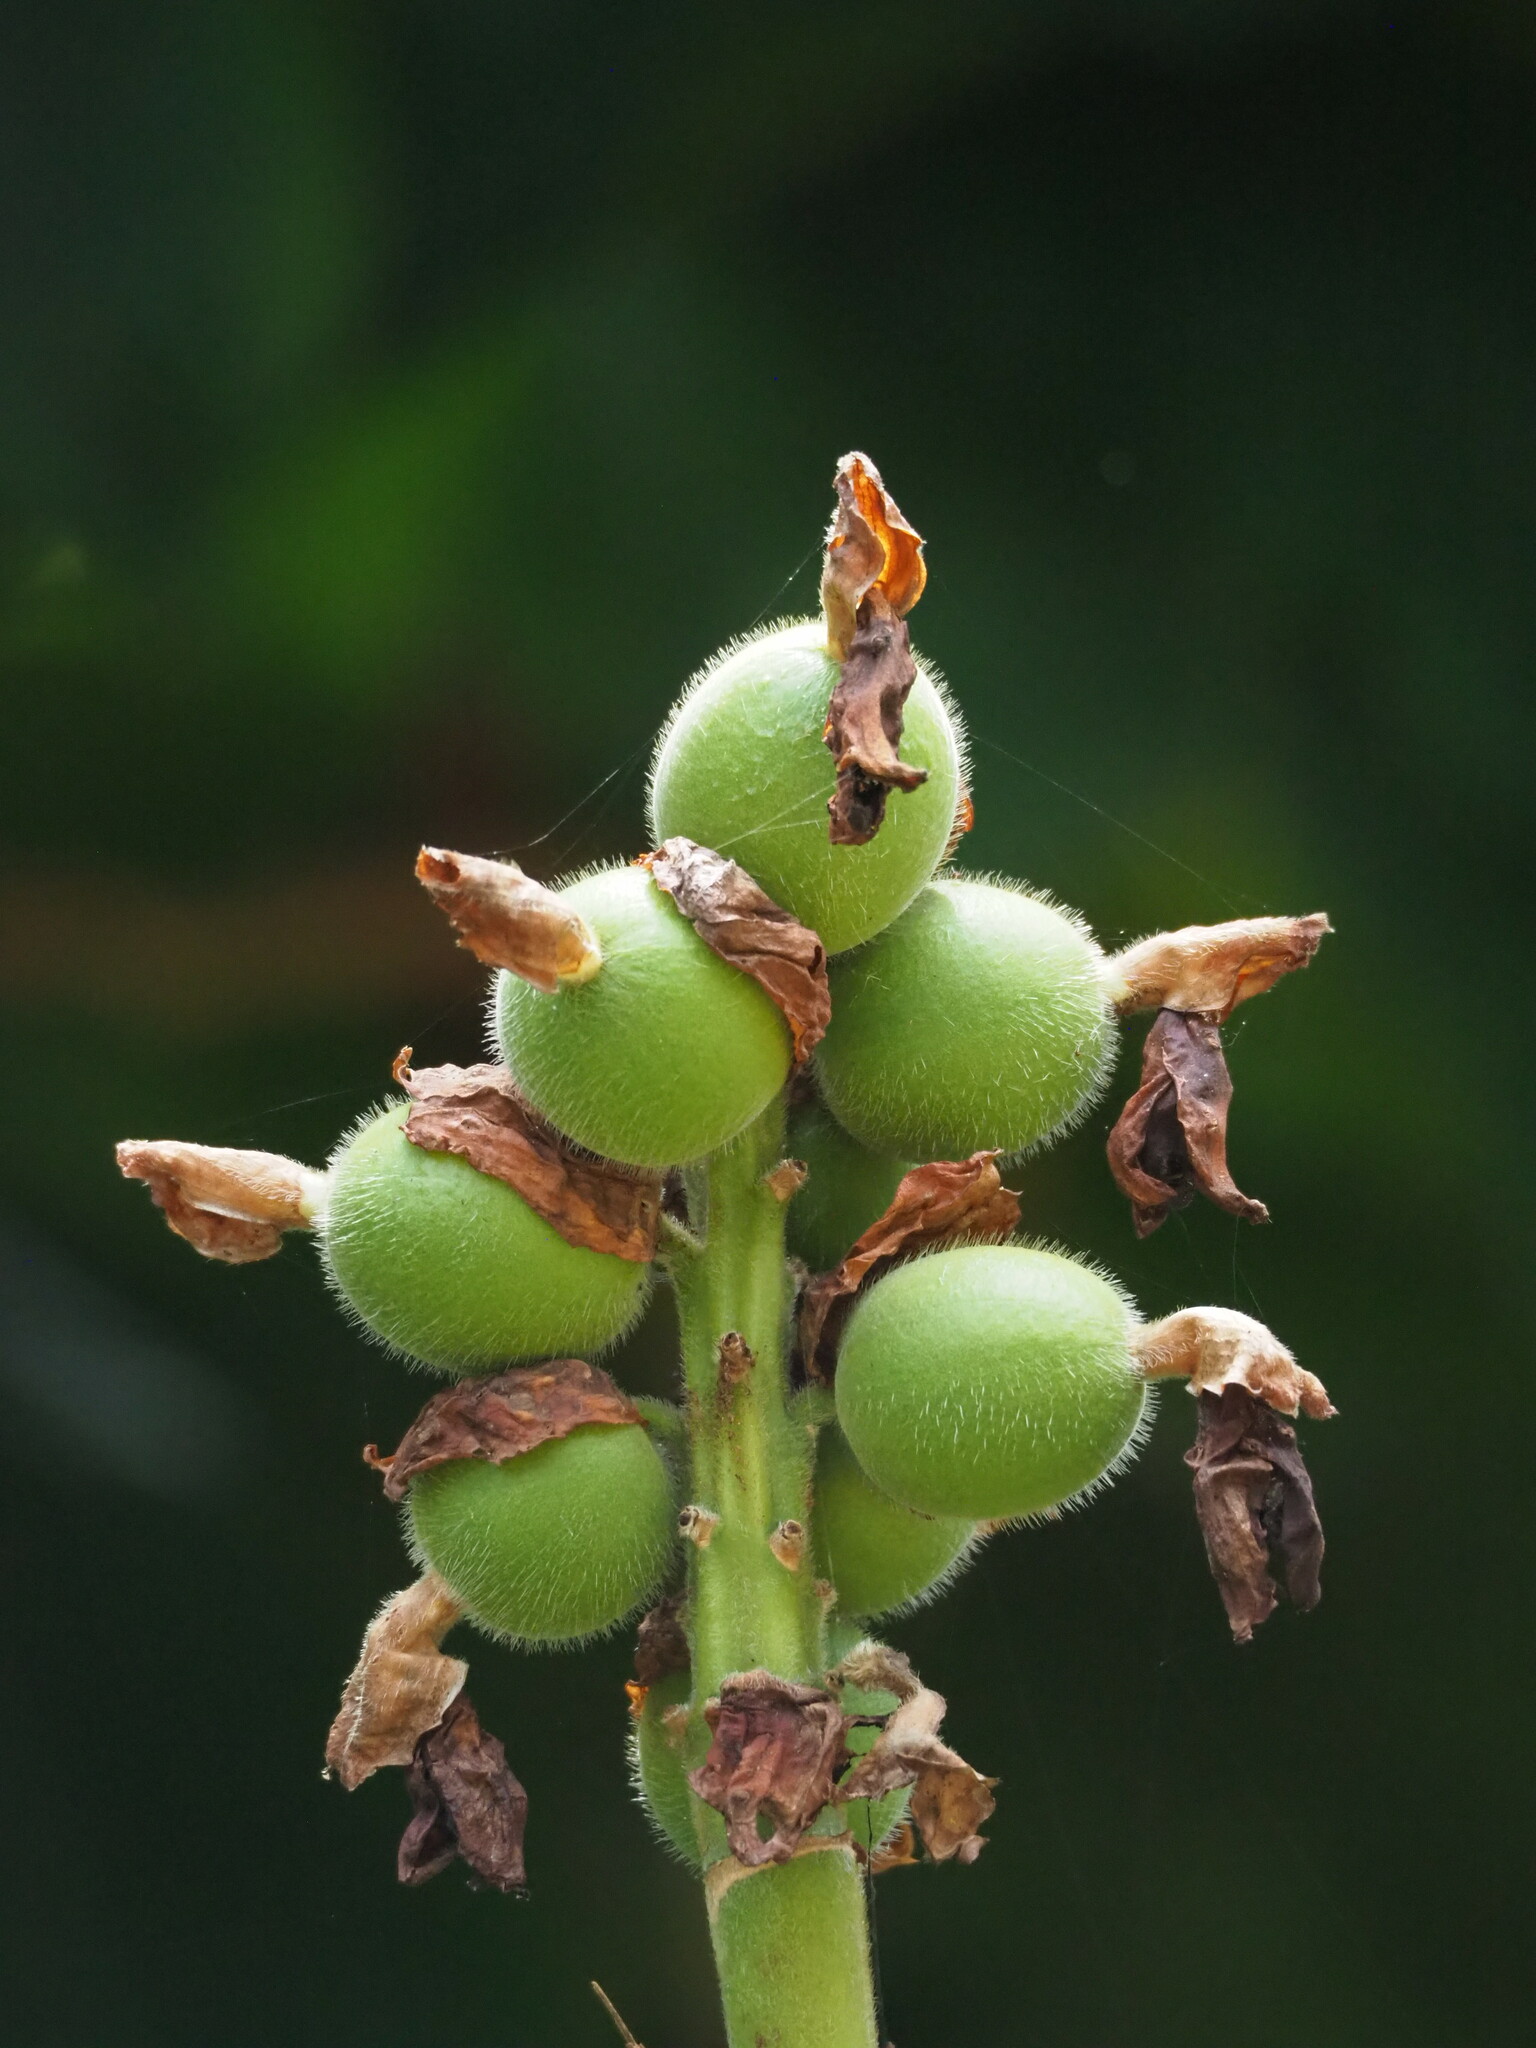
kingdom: Plantae
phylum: Tracheophyta
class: Liliopsida
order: Zingiberales
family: Zingiberaceae
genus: Alpinia
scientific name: Alpinia uraiensis
